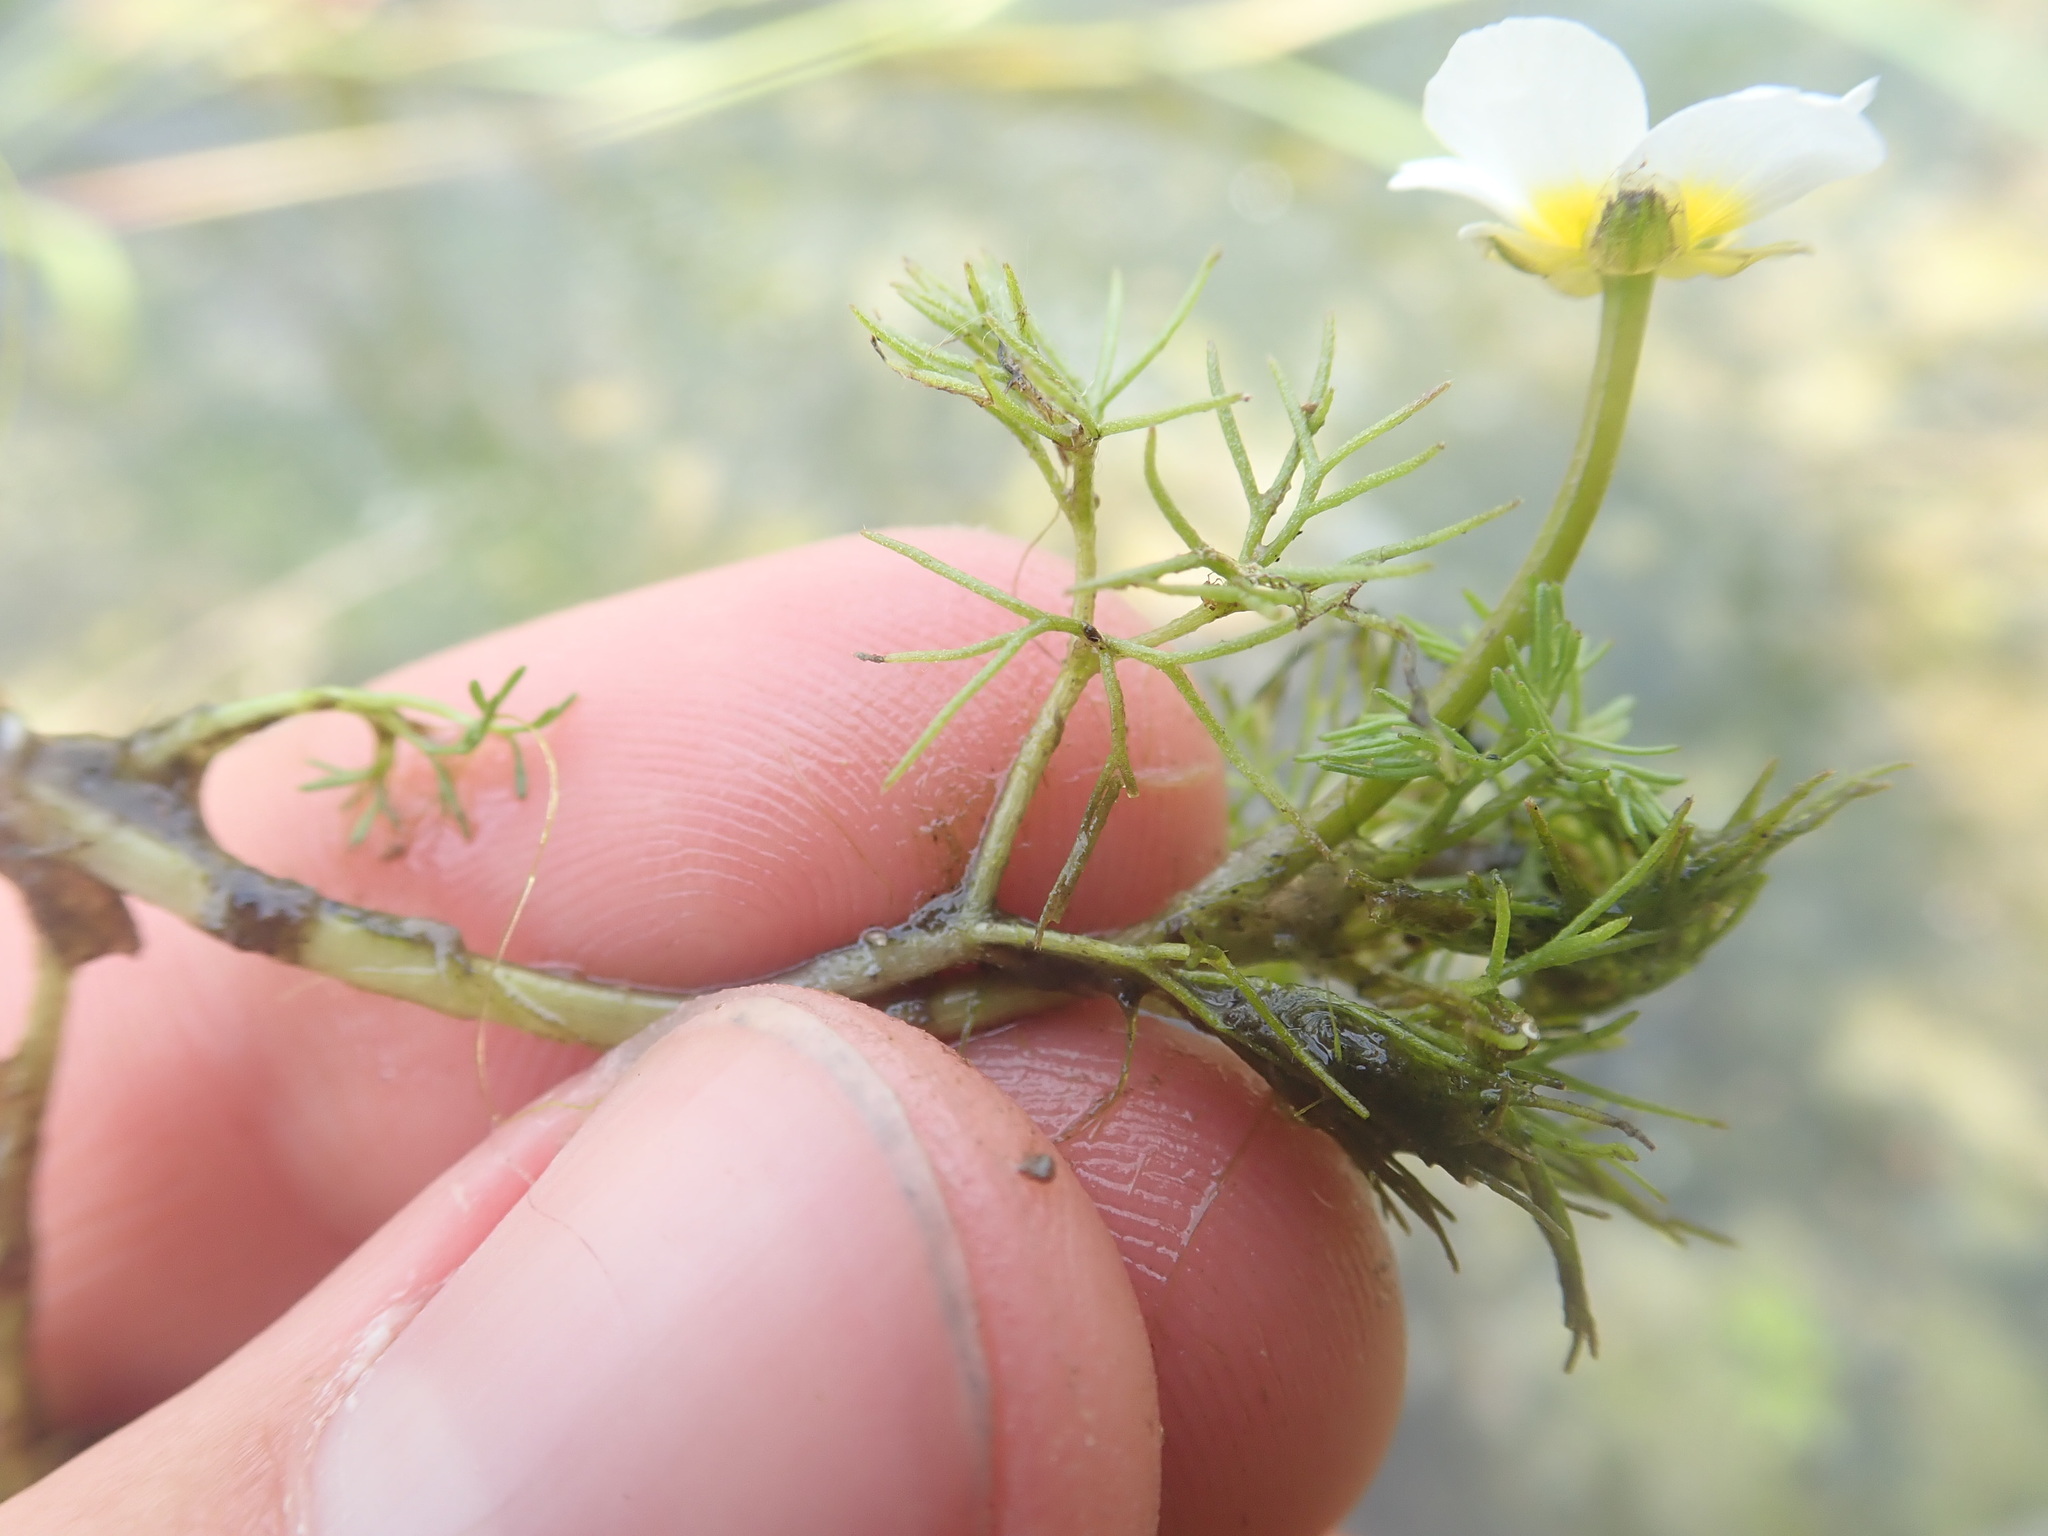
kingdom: Plantae
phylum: Tracheophyta
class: Magnoliopsida
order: Ranunculales
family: Ranunculaceae
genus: Ranunculus
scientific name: Ranunculus
